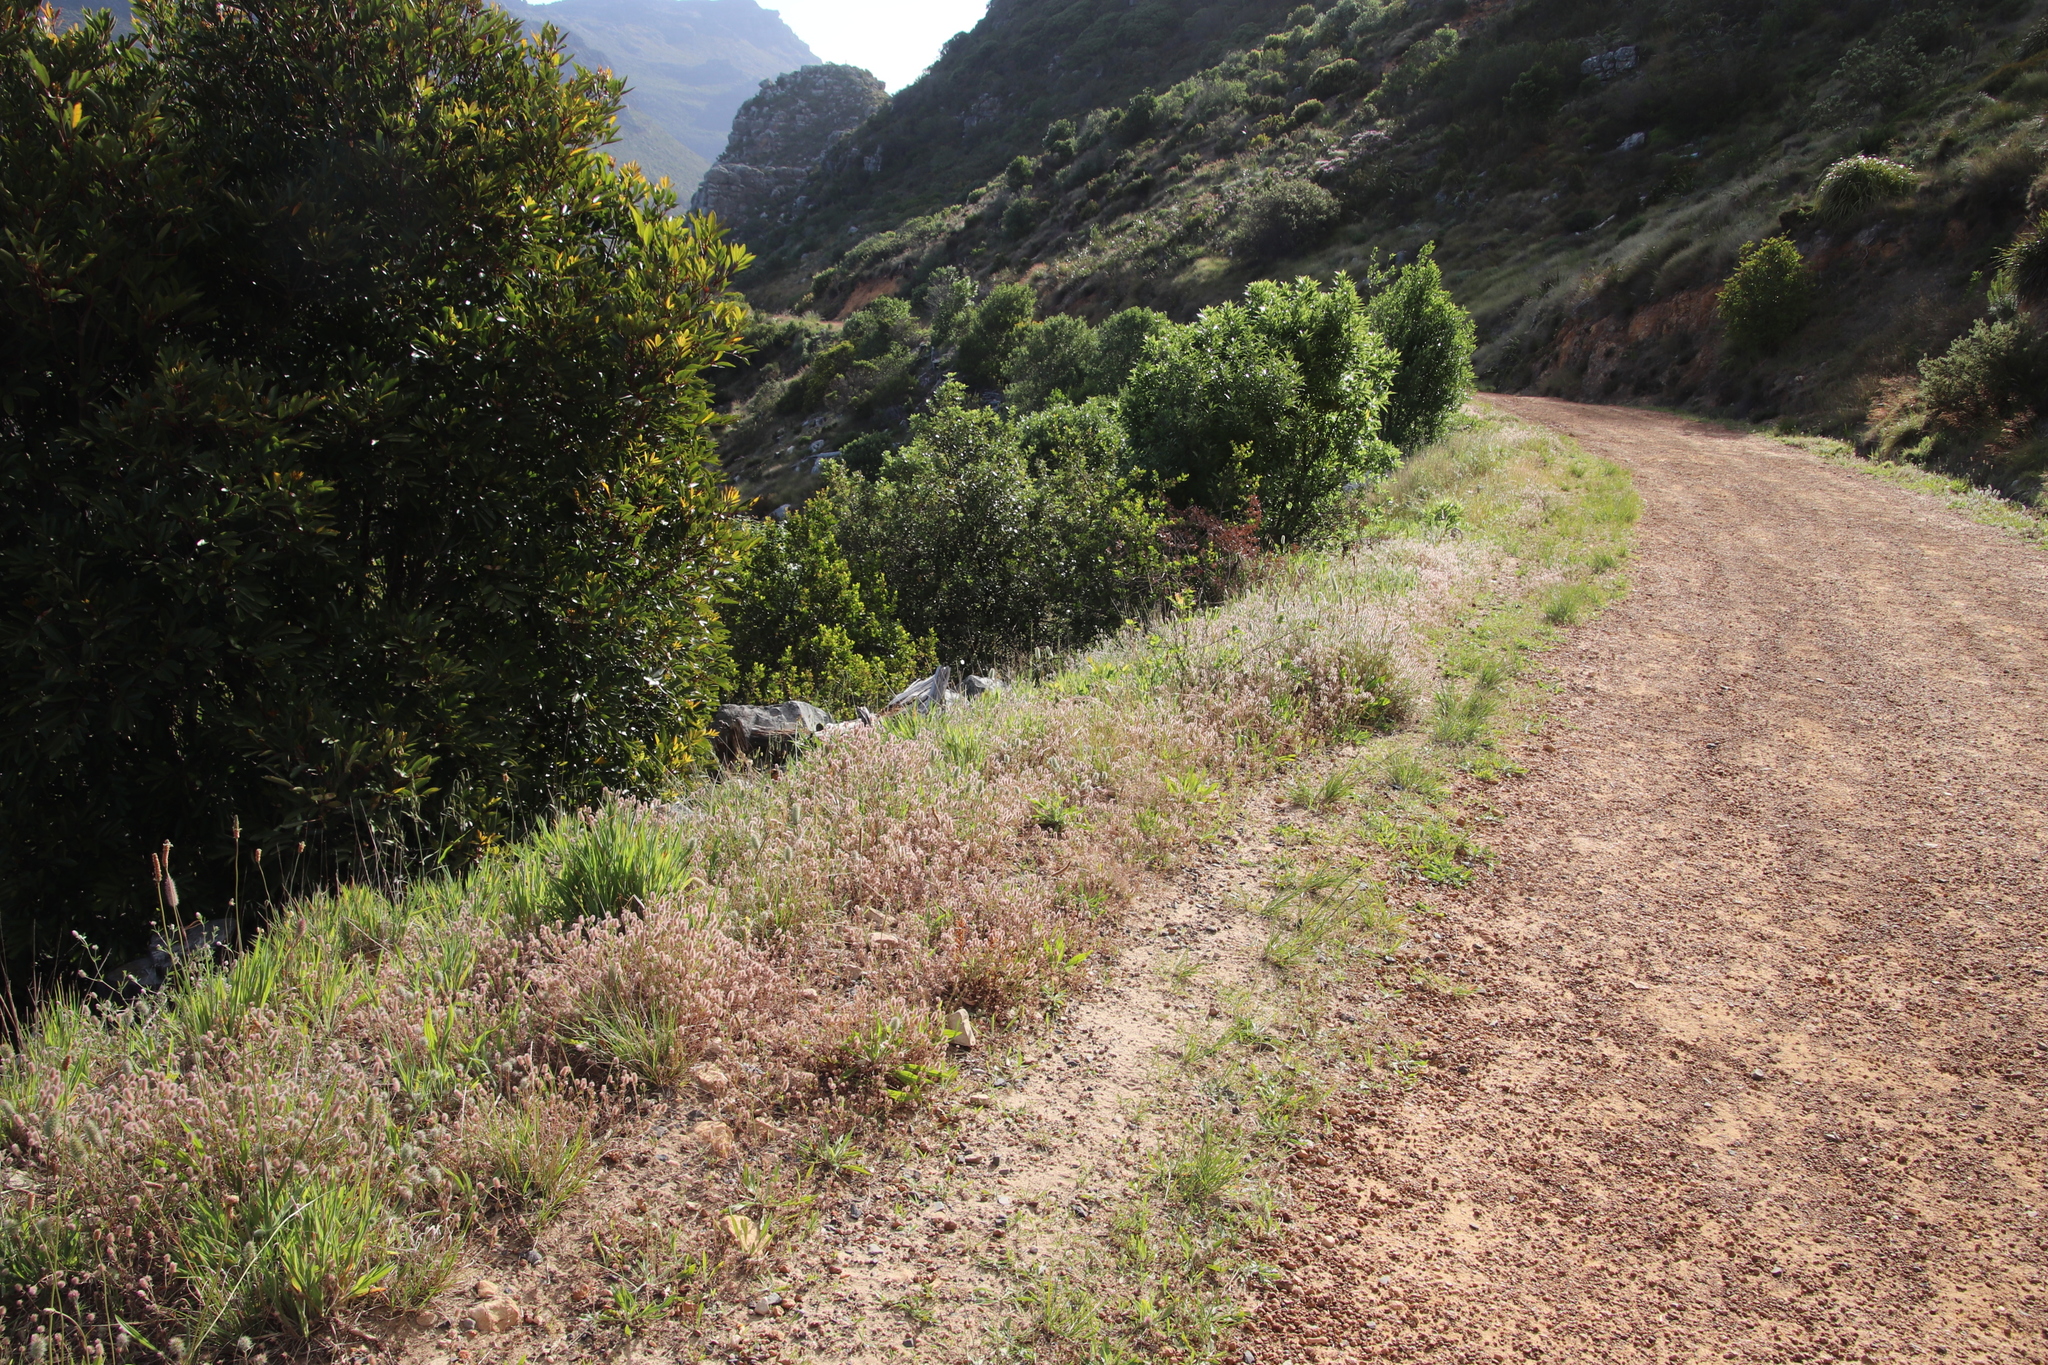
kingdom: Plantae
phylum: Tracheophyta
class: Magnoliopsida
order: Fabales
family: Fabaceae
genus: Trifolium
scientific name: Trifolium arvense
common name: Hare's-foot clover
